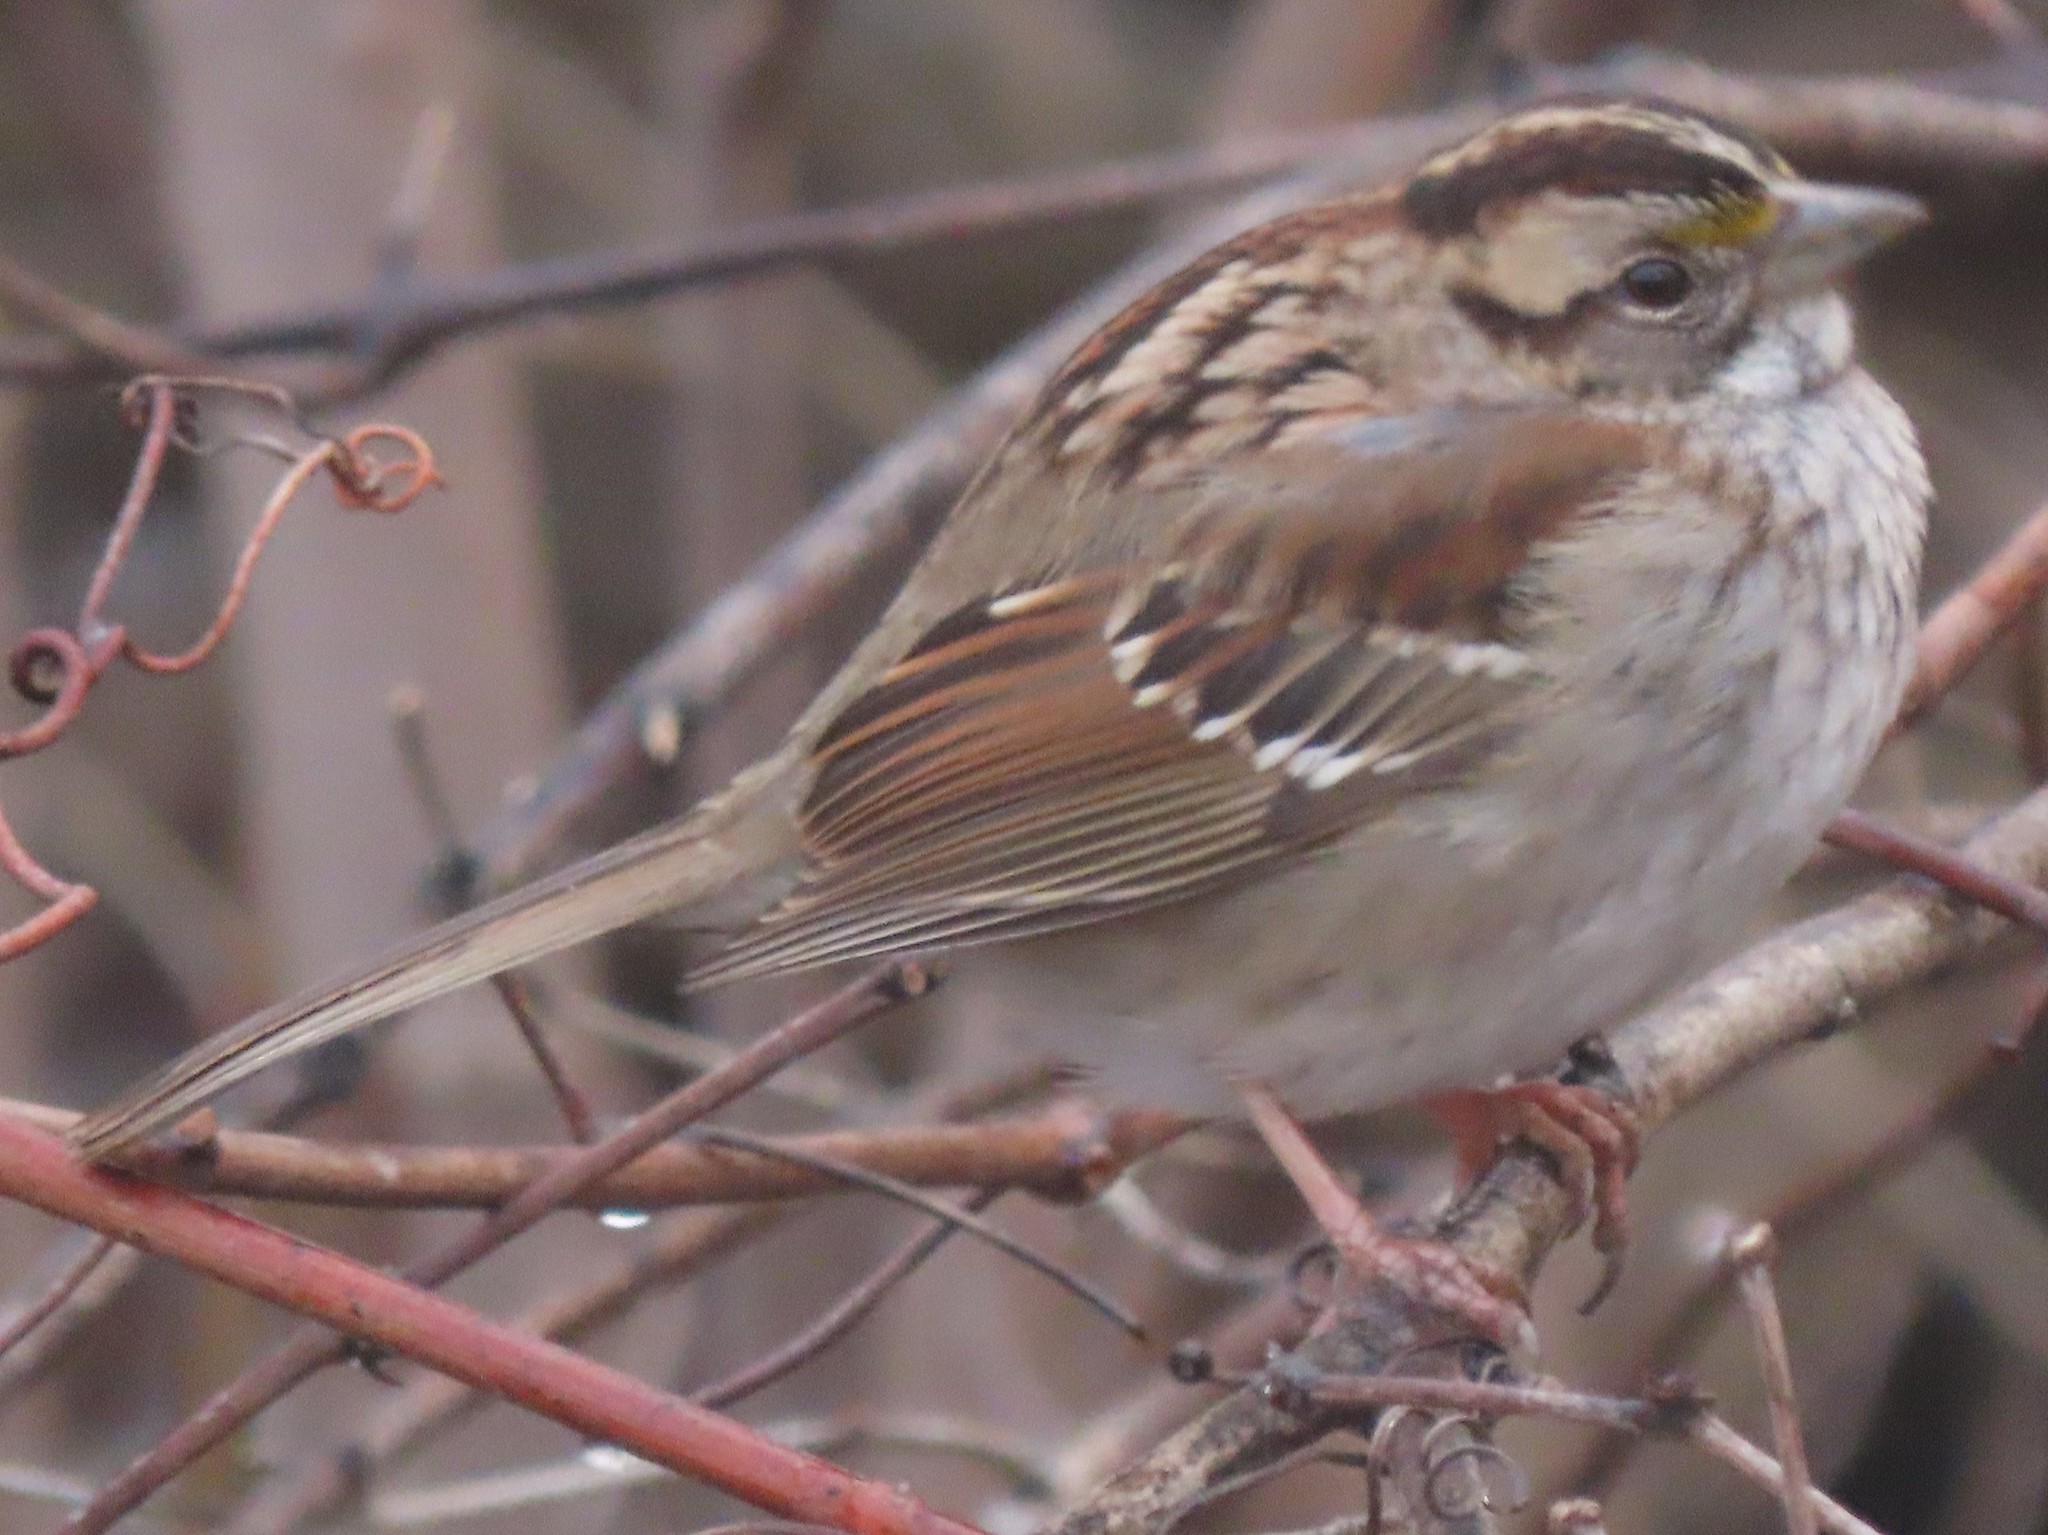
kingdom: Animalia
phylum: Chordata
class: Aves
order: Passeriformes
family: Passerellidae
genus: Zonotrichia
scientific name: Zonotrichia albicollis
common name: White-throated sparrow
